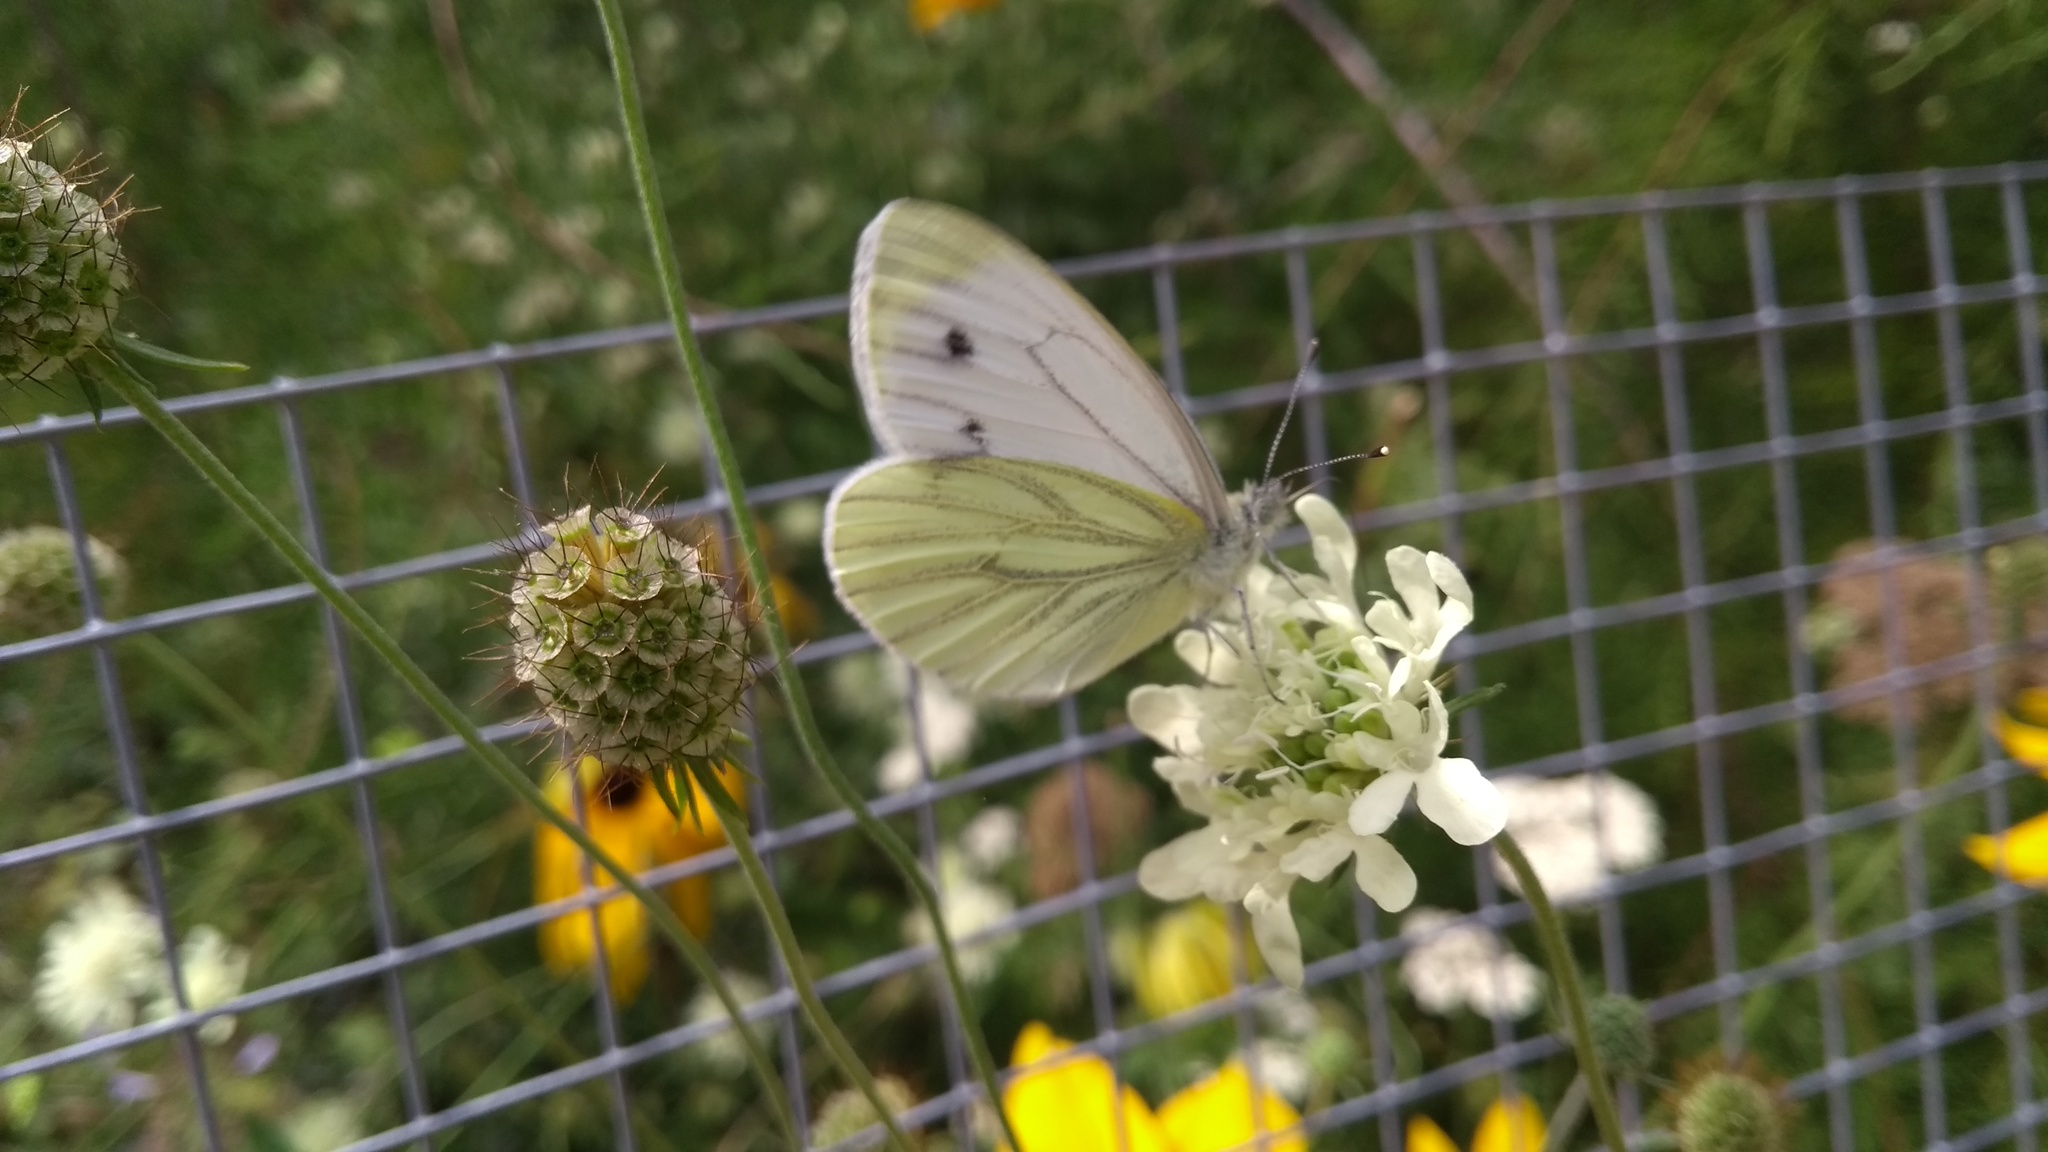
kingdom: Animalia
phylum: Arthropoda
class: Insecta
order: Lepidoptera
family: Pieridae
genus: Pieris
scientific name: Pieris napi
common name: Green-veined white
